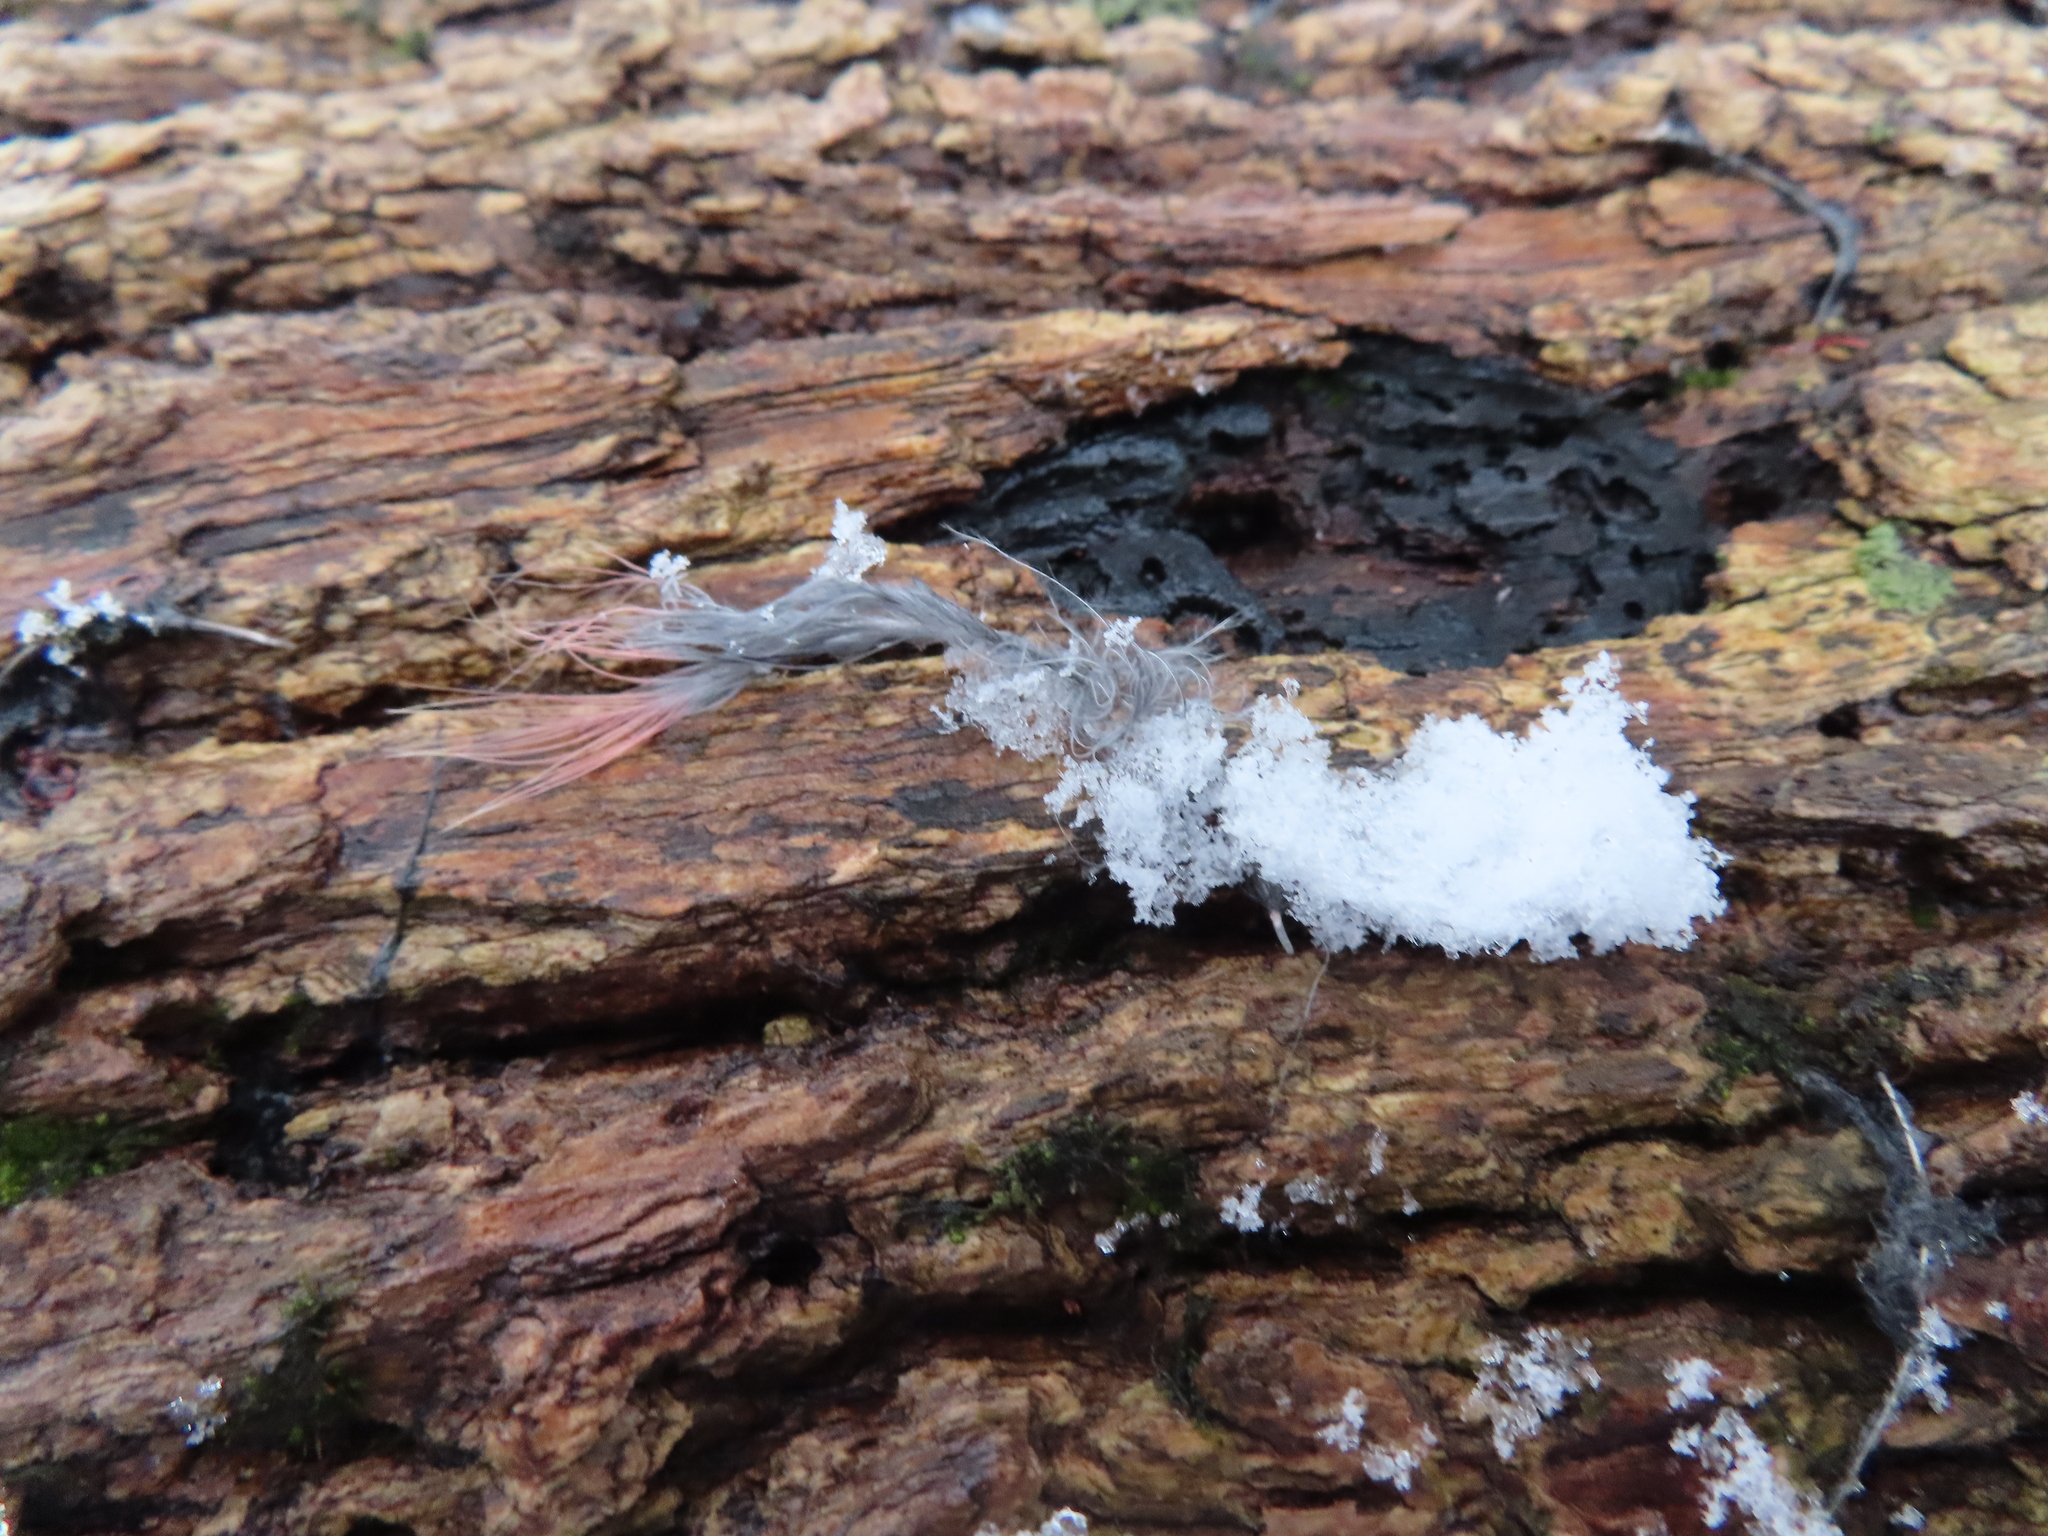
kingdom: Animalia
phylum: Chordata
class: Aves
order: Passeriformes
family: Cardinalidae
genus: Cardinalis
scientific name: Cardinalis cardinalis
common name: Northern cardinal
